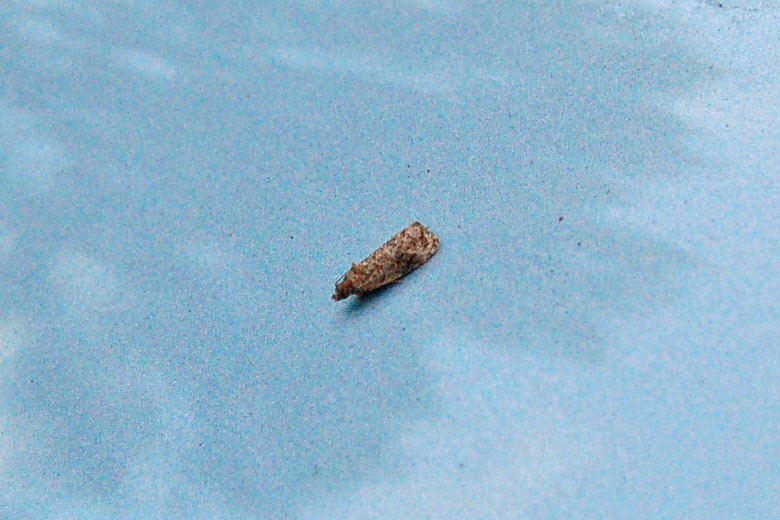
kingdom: Animalia
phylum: Arthropoda
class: Insecta
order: Lepidoptera
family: Tortricidae
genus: Endothenia
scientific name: Endothenia hebesana
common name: Verbena bud moth
